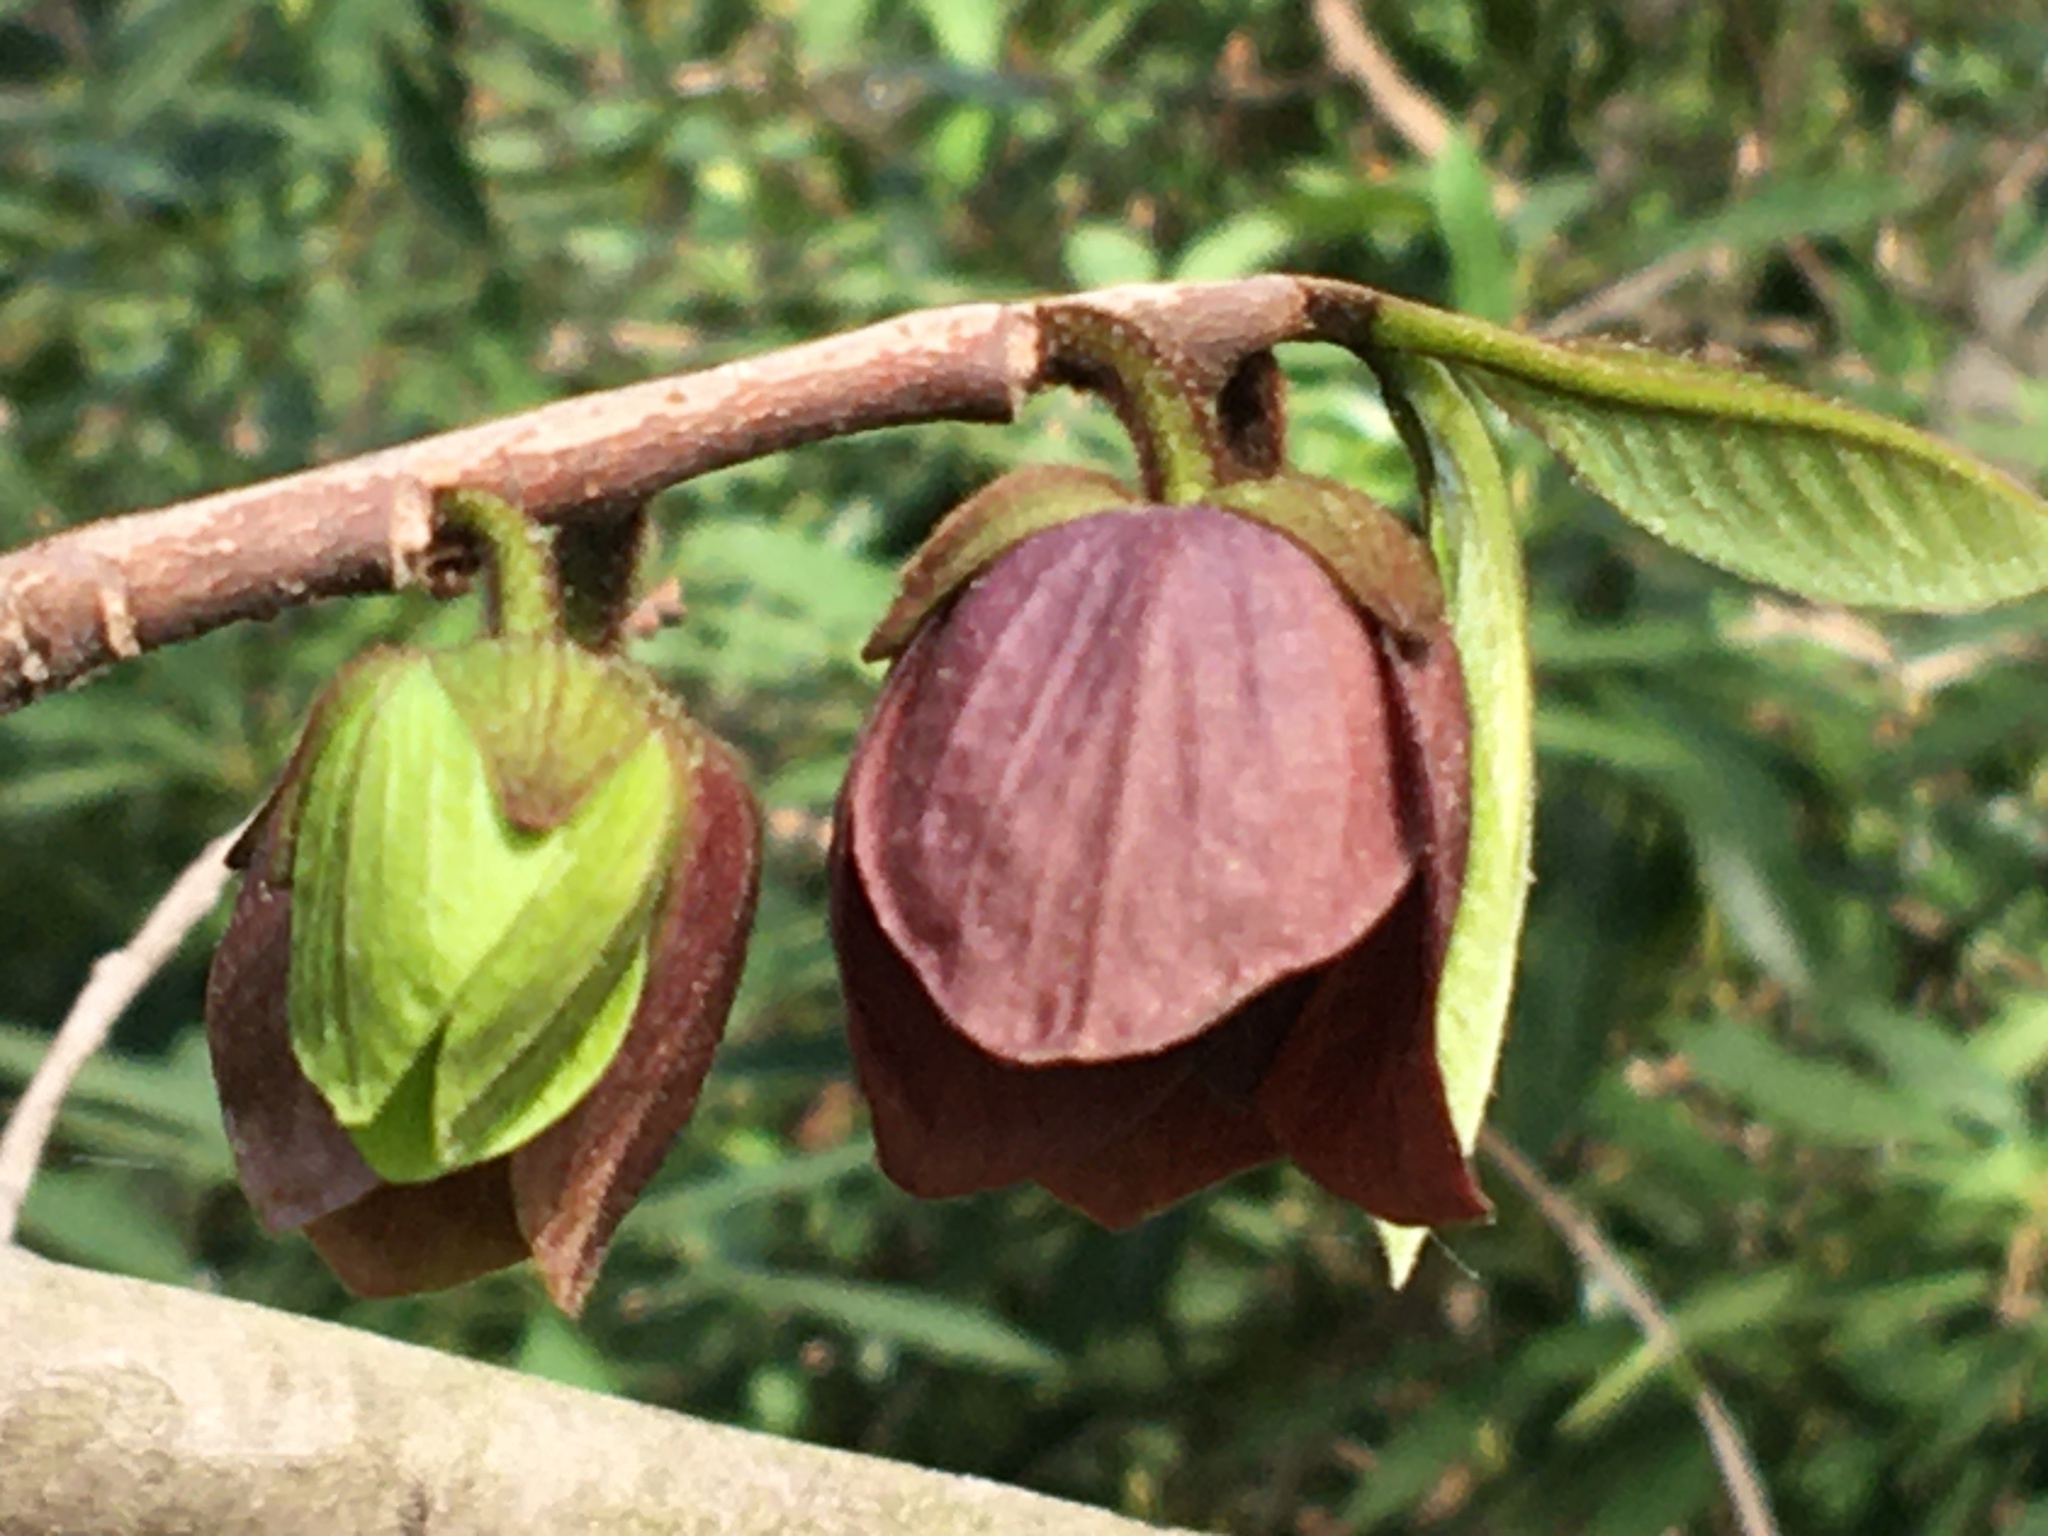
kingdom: Plantae
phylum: Tracheophyta
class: Magnoliopsida
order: Magnoliales
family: Annonaceae
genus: Asimina
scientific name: Asimina triloba
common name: Dog-banana
